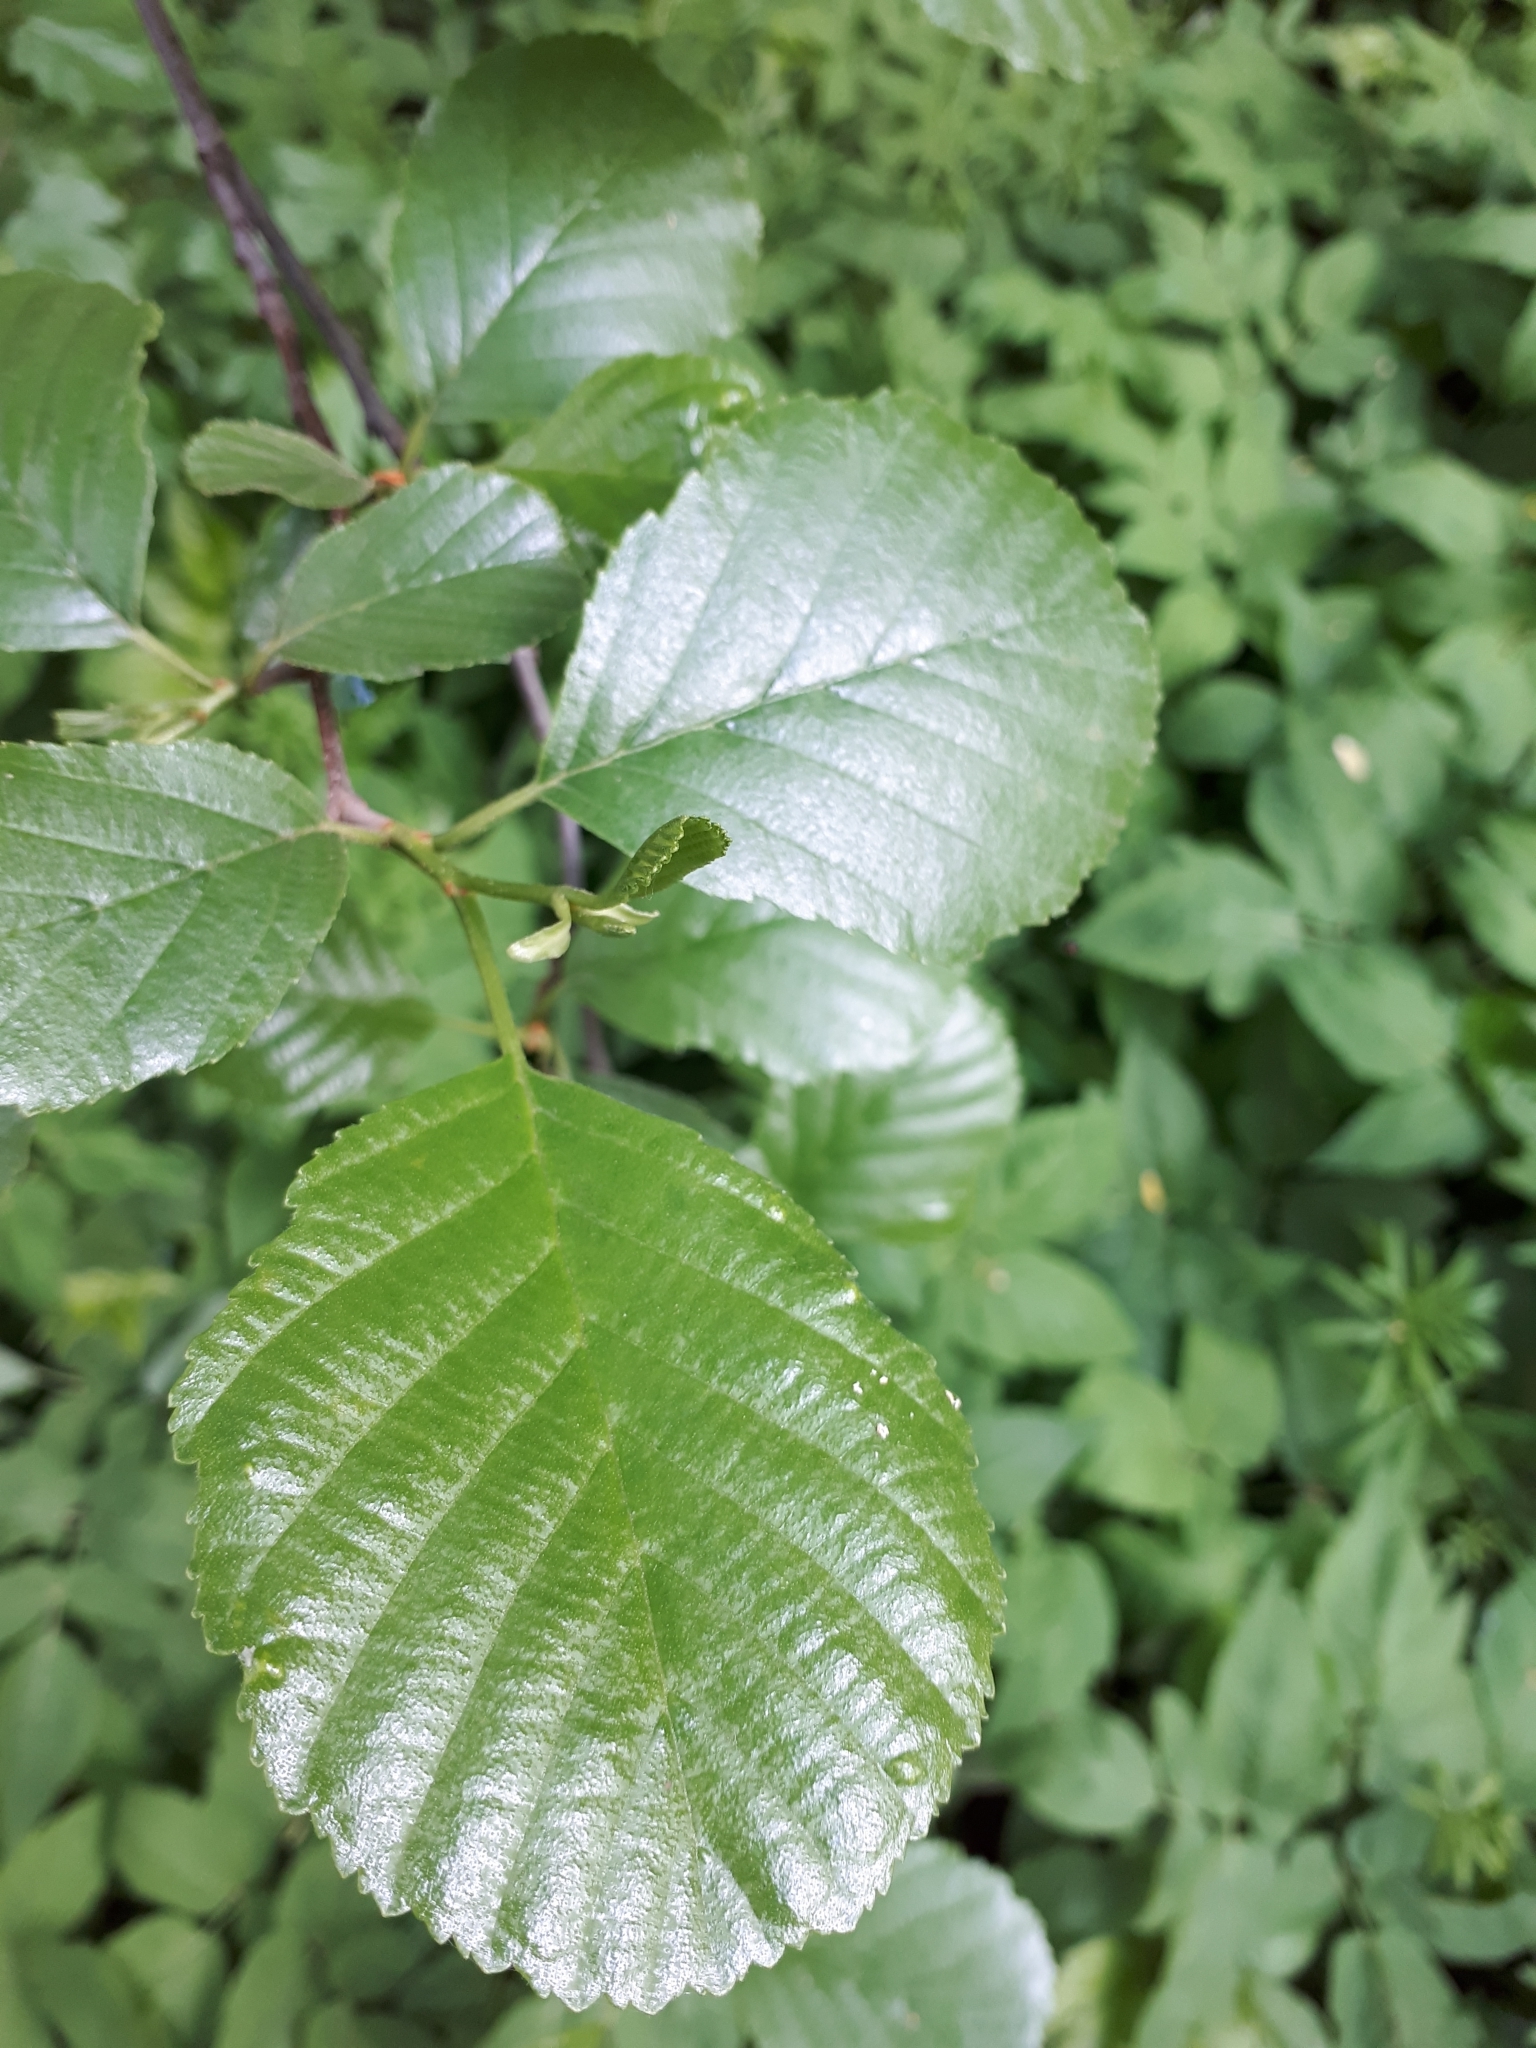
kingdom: Plantae
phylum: Tracheophyta
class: Magnoliopsida
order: Fagales
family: Betulaceae
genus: Alnus
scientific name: Alnus glutinosa
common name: Black alder
